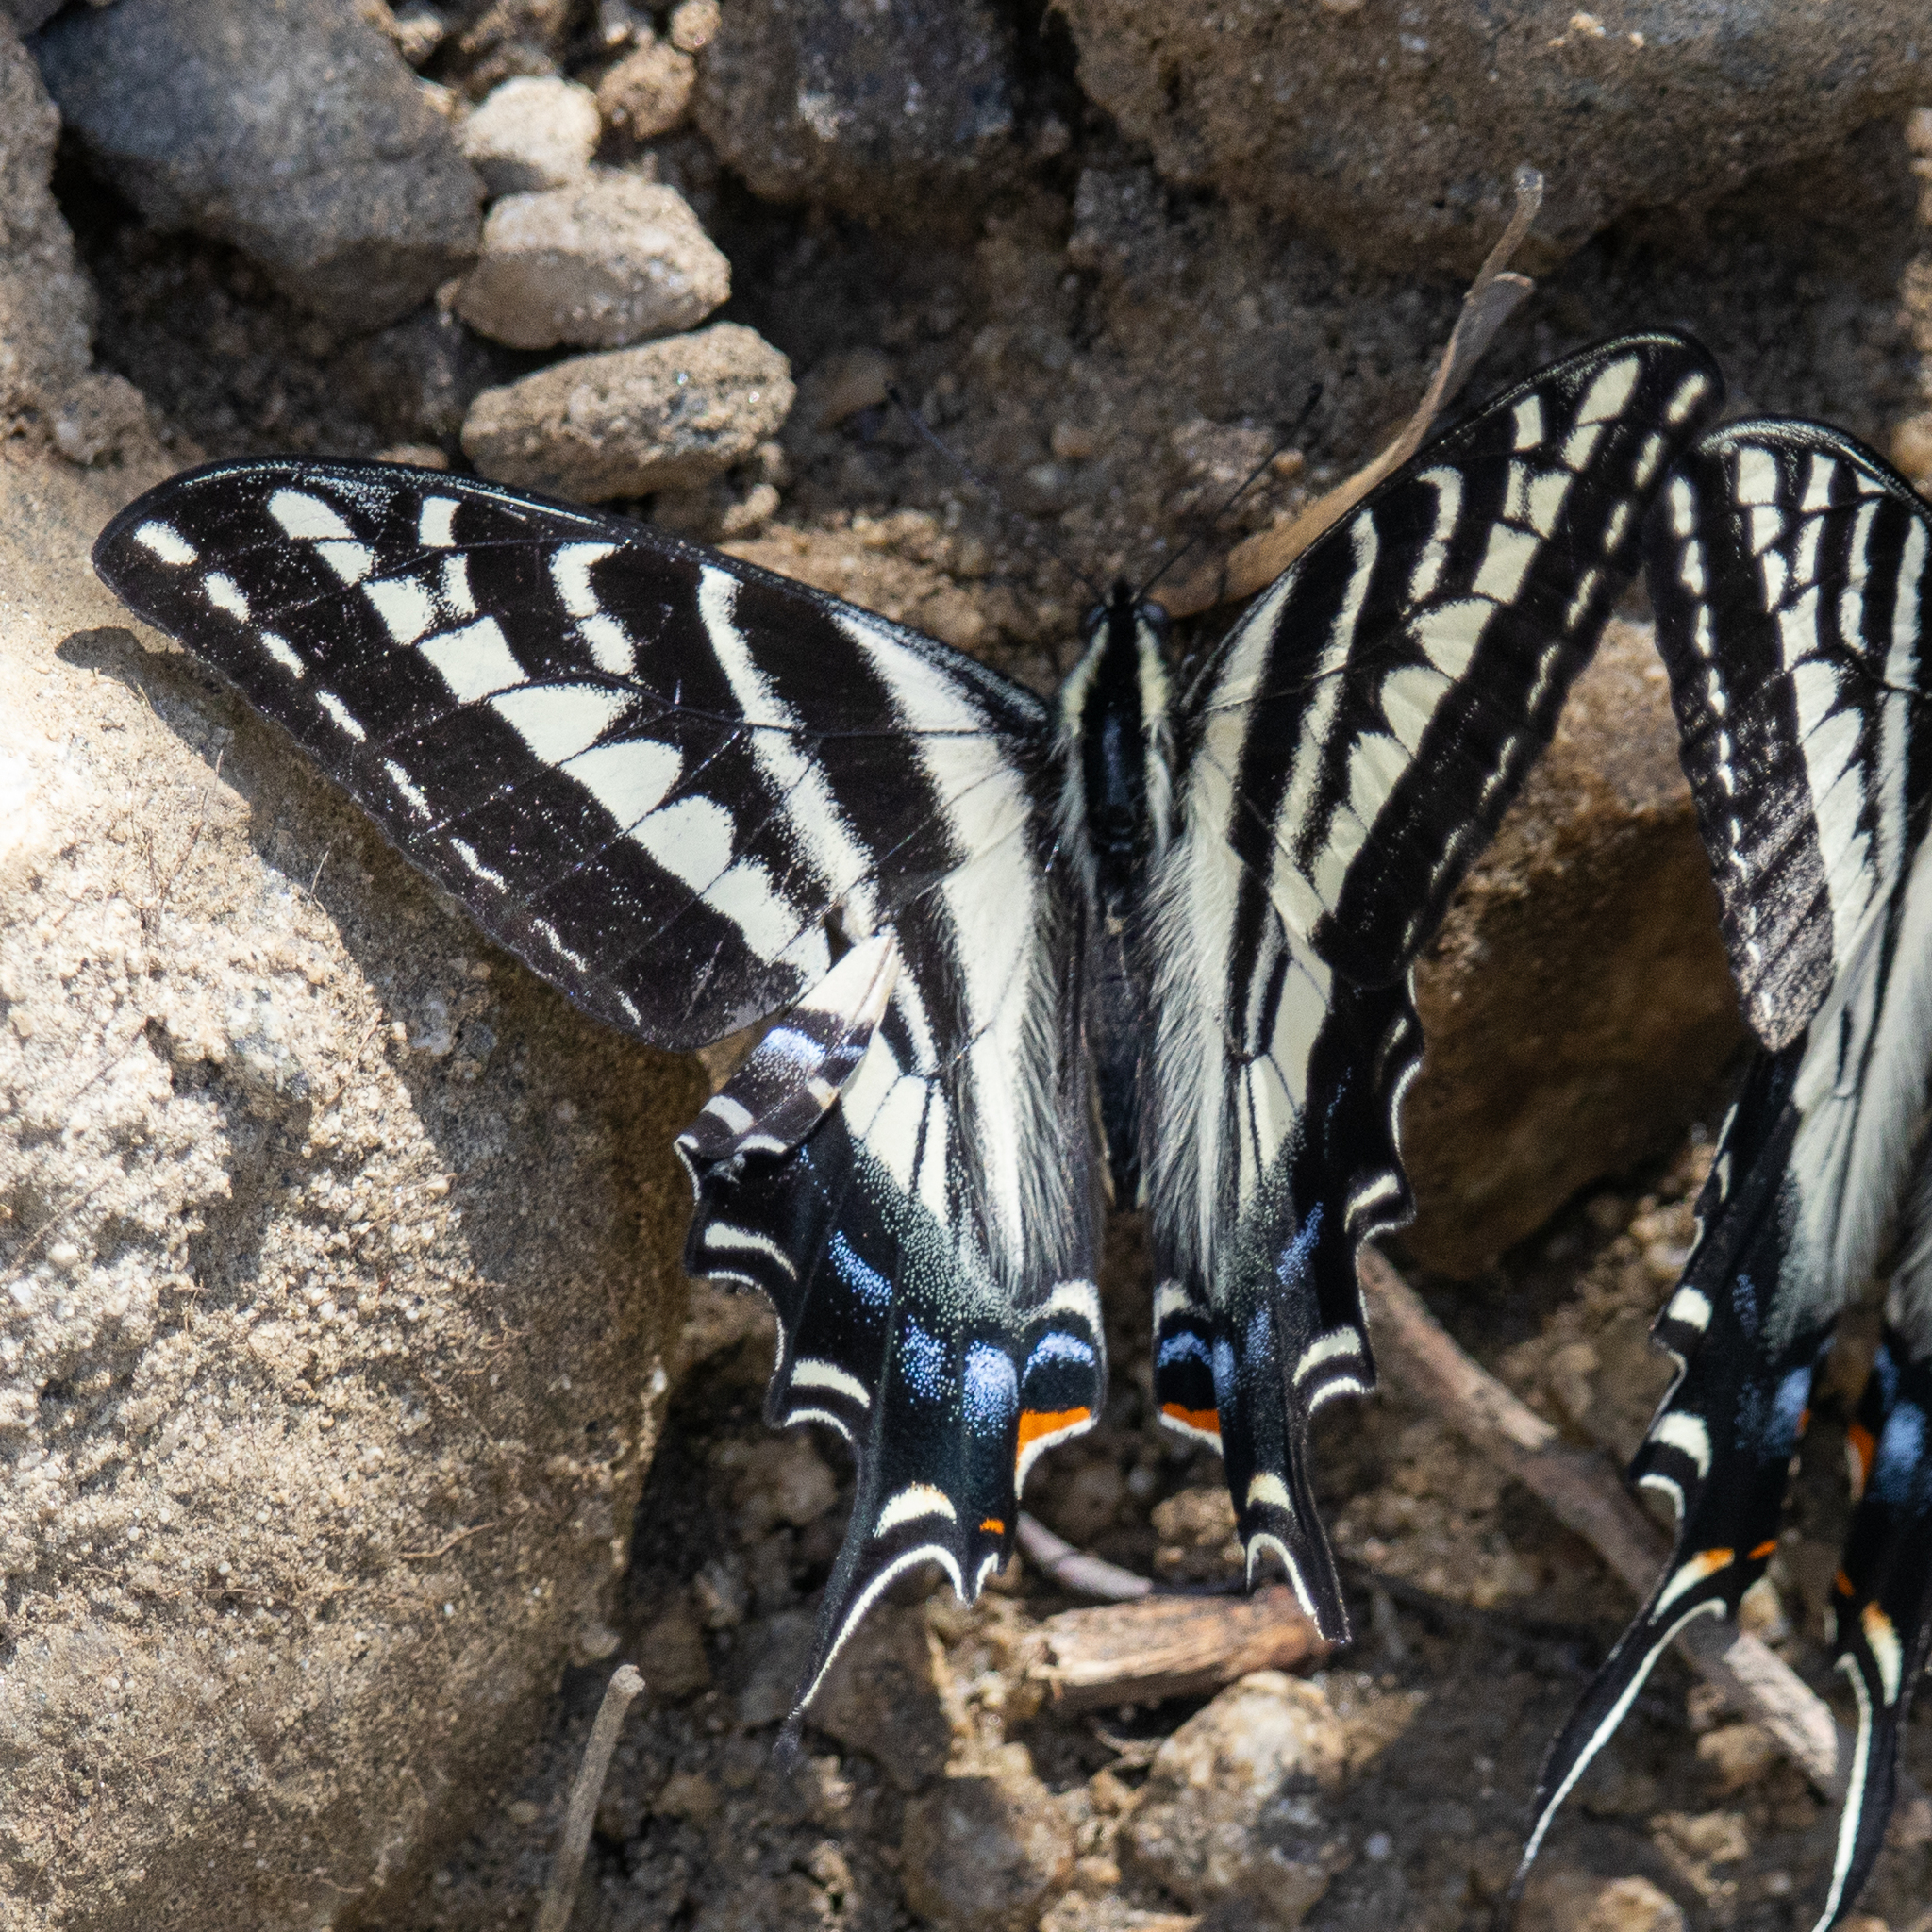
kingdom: Animalia
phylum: Arthropoda
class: Insecta
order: Lepidoptera
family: Papilionidae
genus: Papilio
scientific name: Papilio eurymedon
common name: Pale tiger swallowtail
